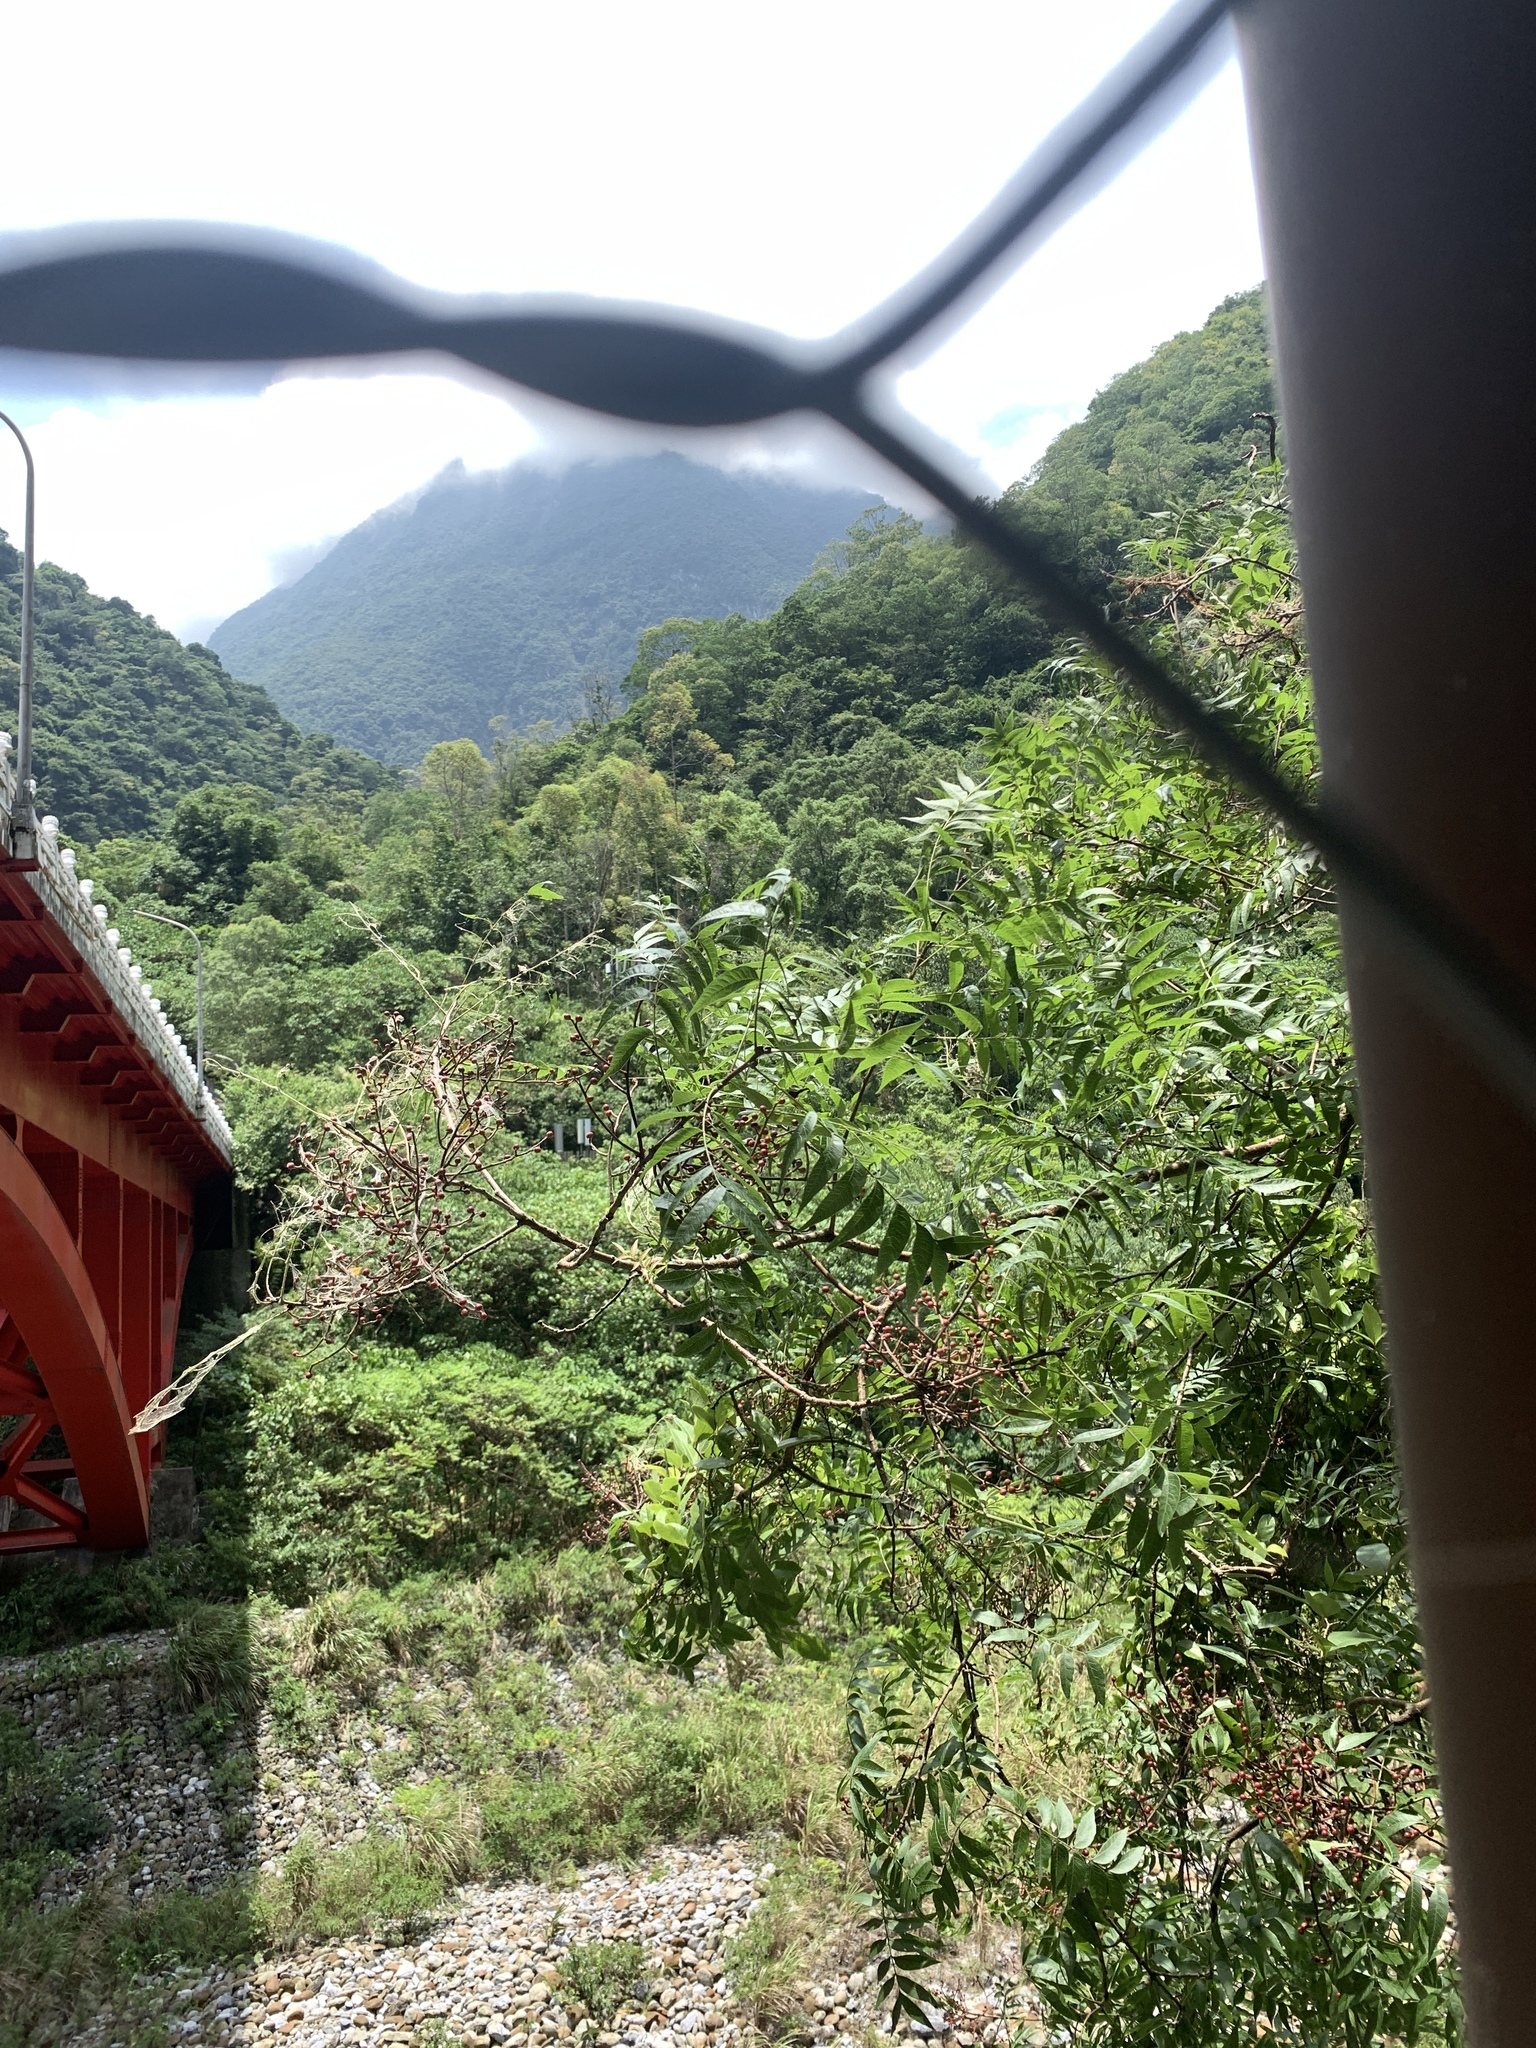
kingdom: Plantae
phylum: Tracheophyta
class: Magnoliopsida
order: Sapindales
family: Anacardiaceae
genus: Pistacia
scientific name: Pistacia chinensis
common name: Chinese pistache
